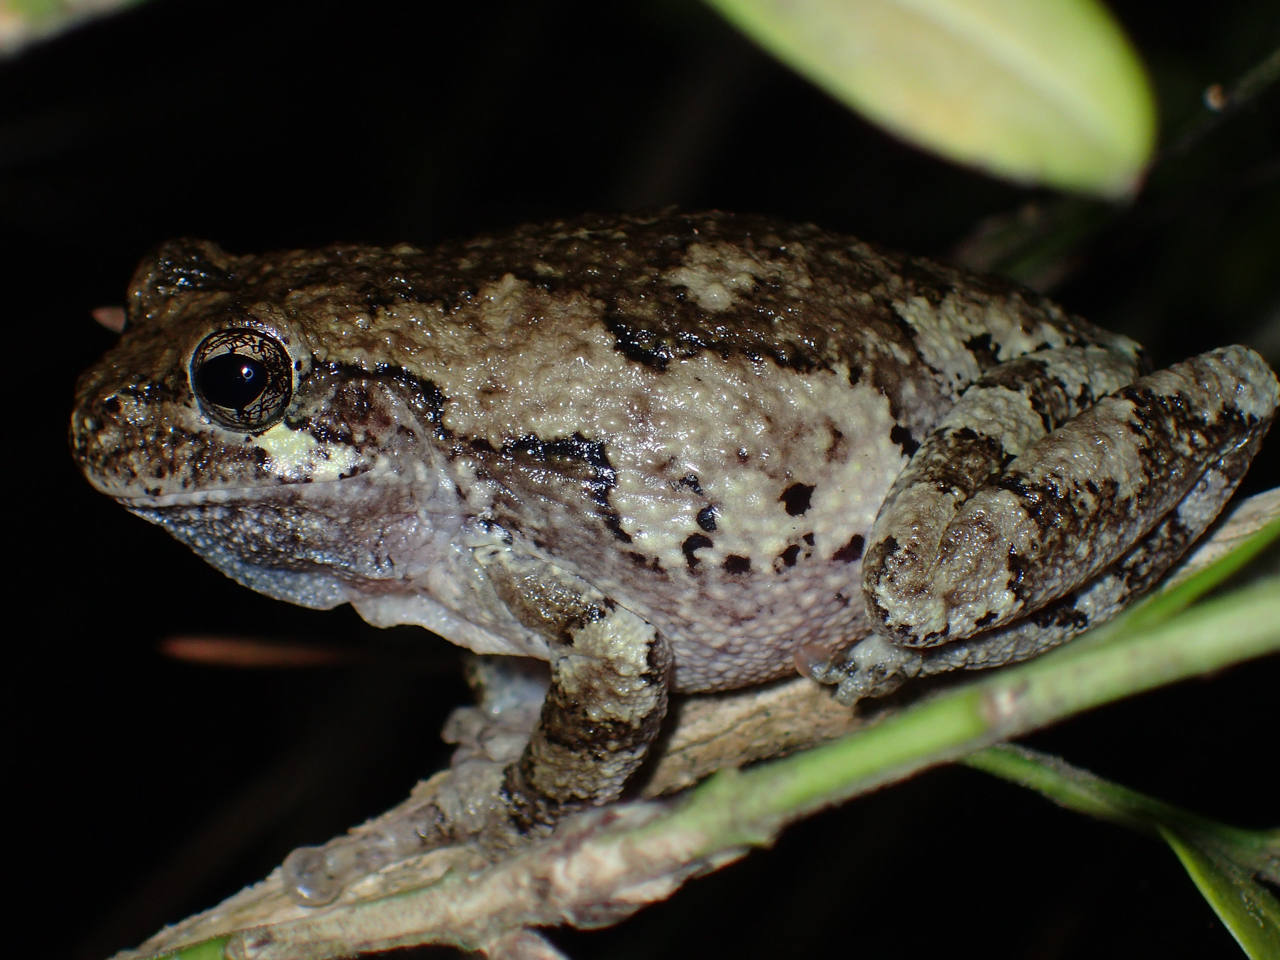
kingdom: Animalia
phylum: Chordata
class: Amphibia
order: Anura
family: Hylidae
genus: Dryophytes
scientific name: Dryophytes chrysoscelis
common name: Cope's gray treefrog
